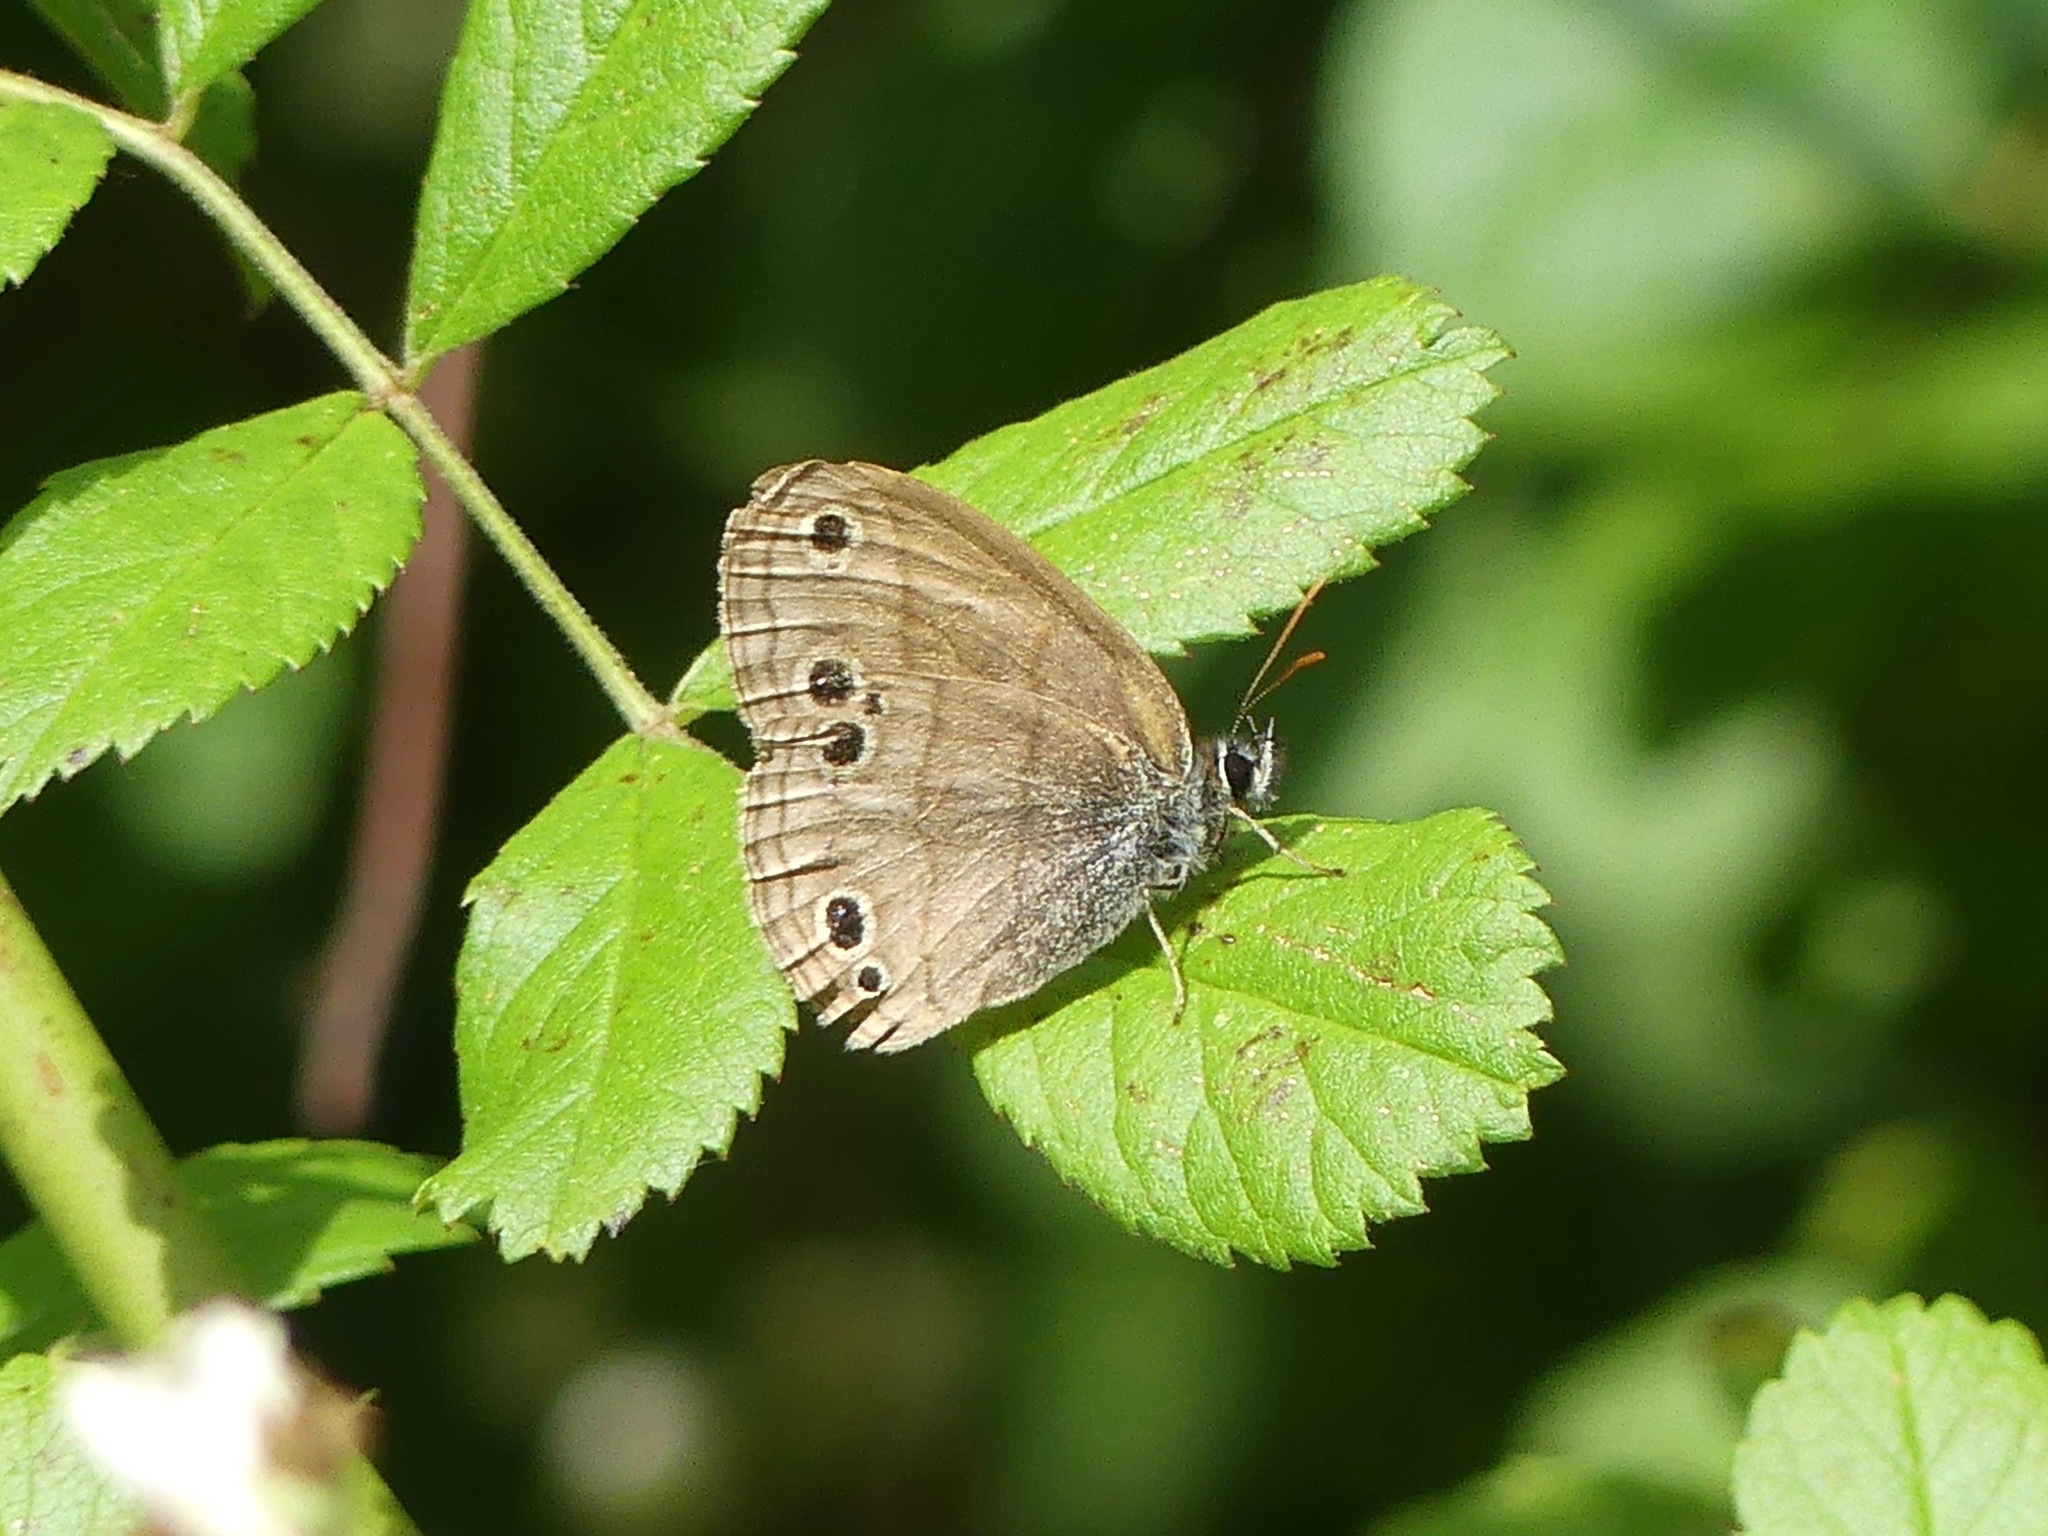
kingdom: Animalia
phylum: Arthropoda
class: Insecta
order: Lepidoptera
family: Nymphalidae
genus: Euptychia
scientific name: Euptychia cymela
